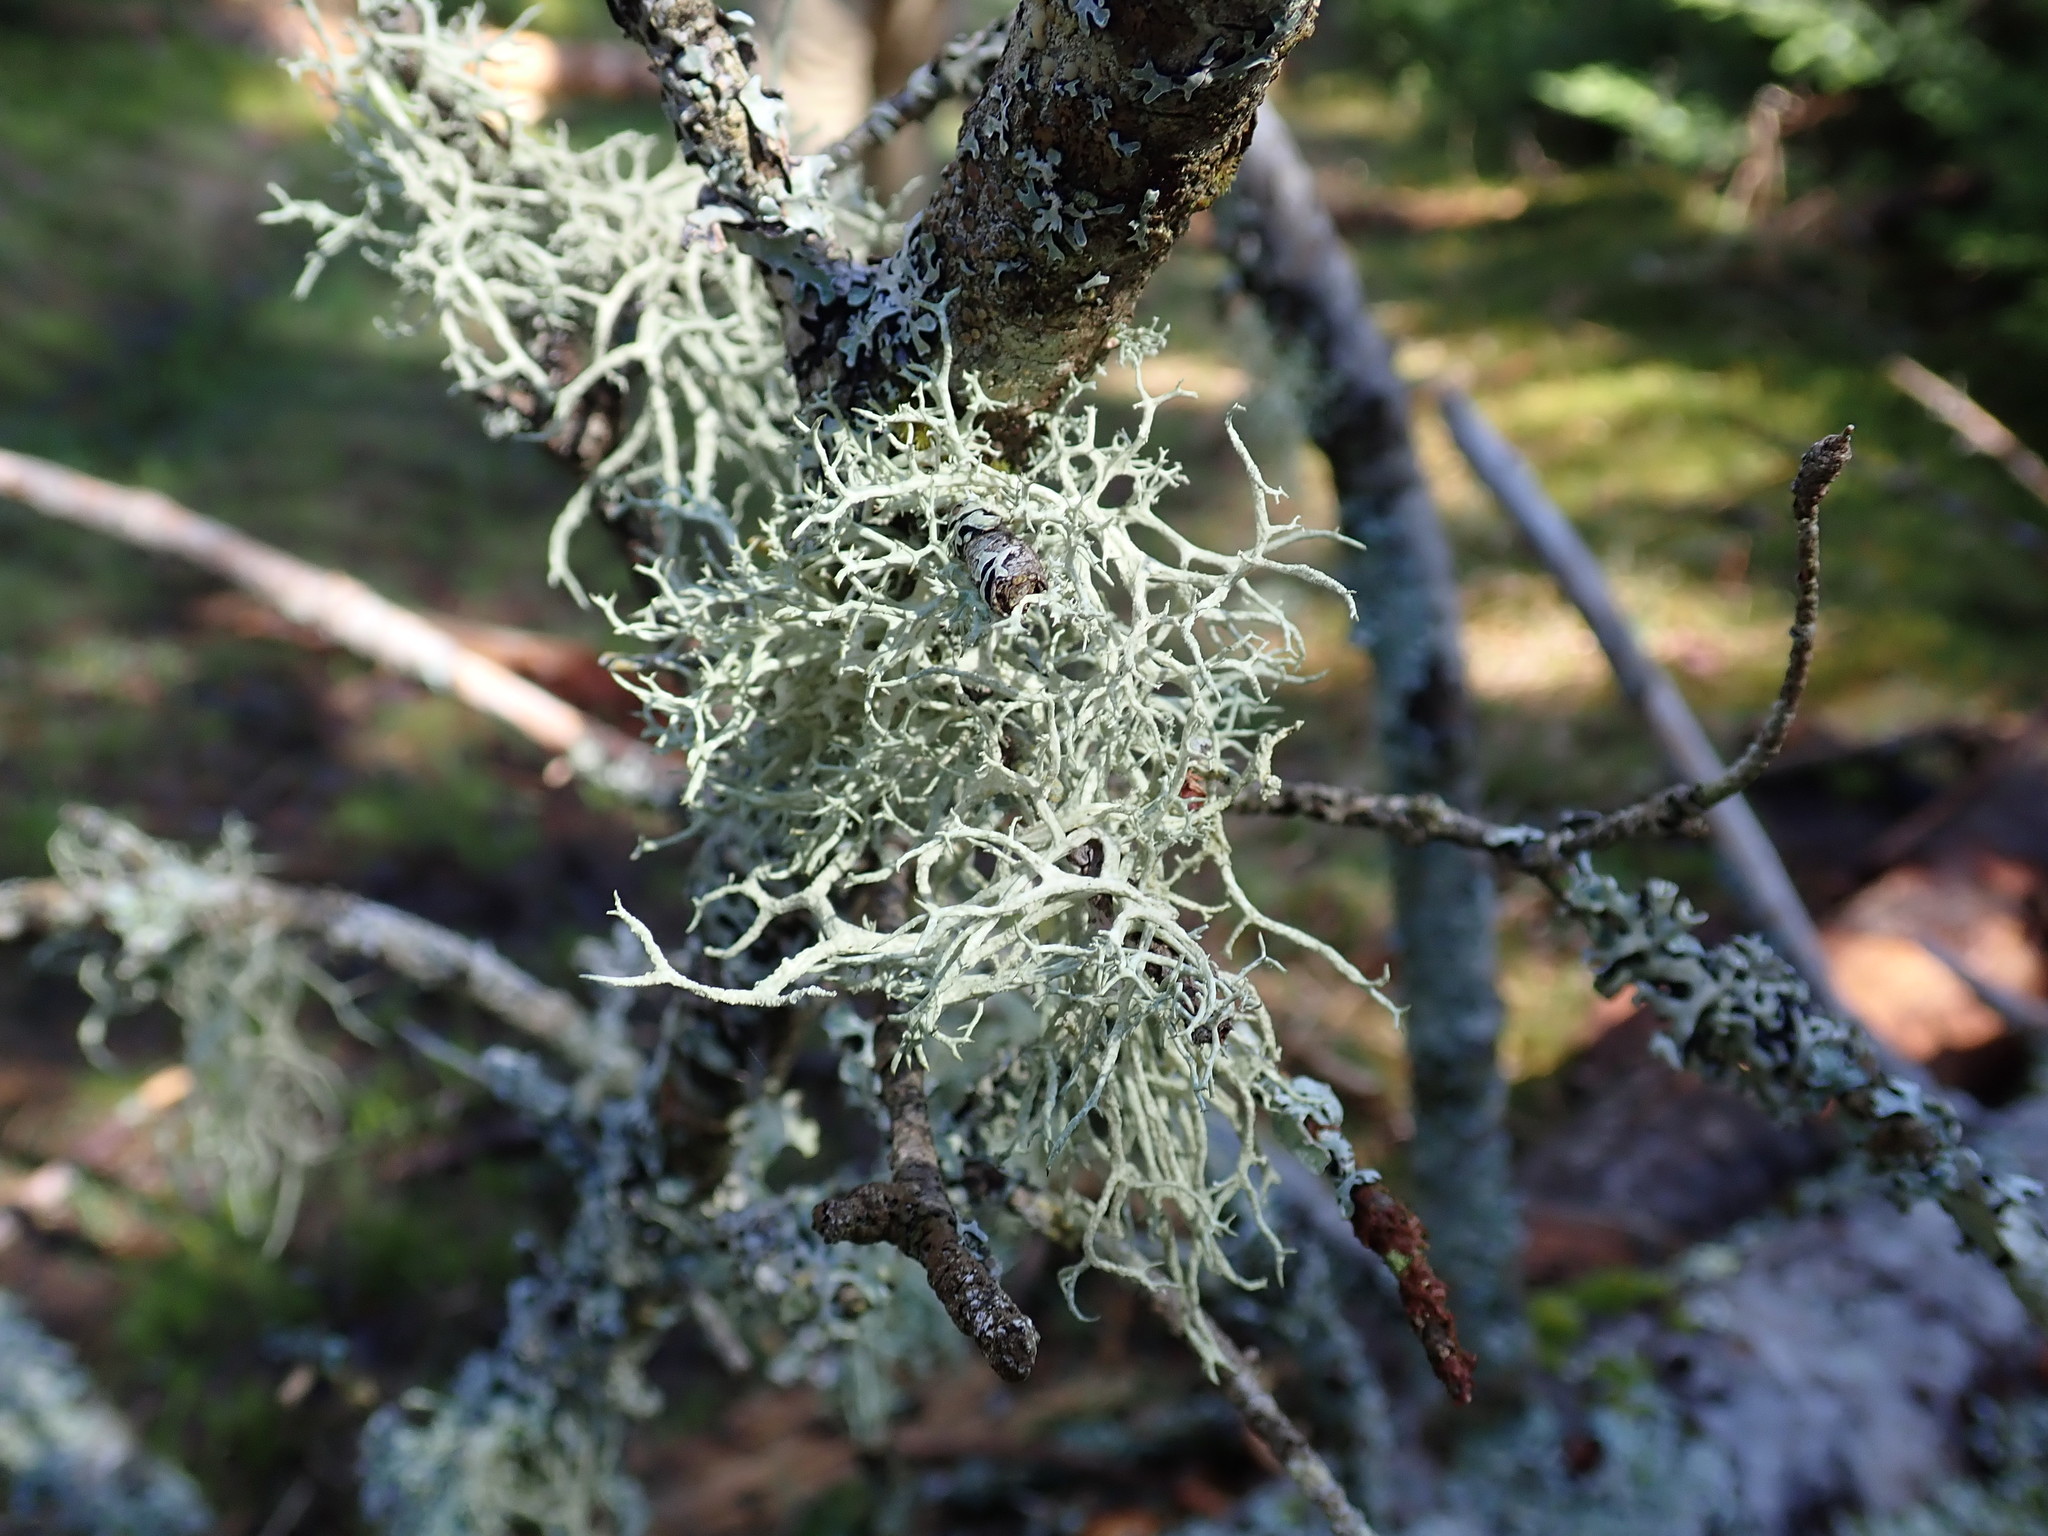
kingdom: Fungi
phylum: Ascomycota
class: Lecanoromycetes
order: Lecanorales
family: Parmeliaceae
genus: Evernia
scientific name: Evernia mesomorpha
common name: Boreal oak moss lichen
